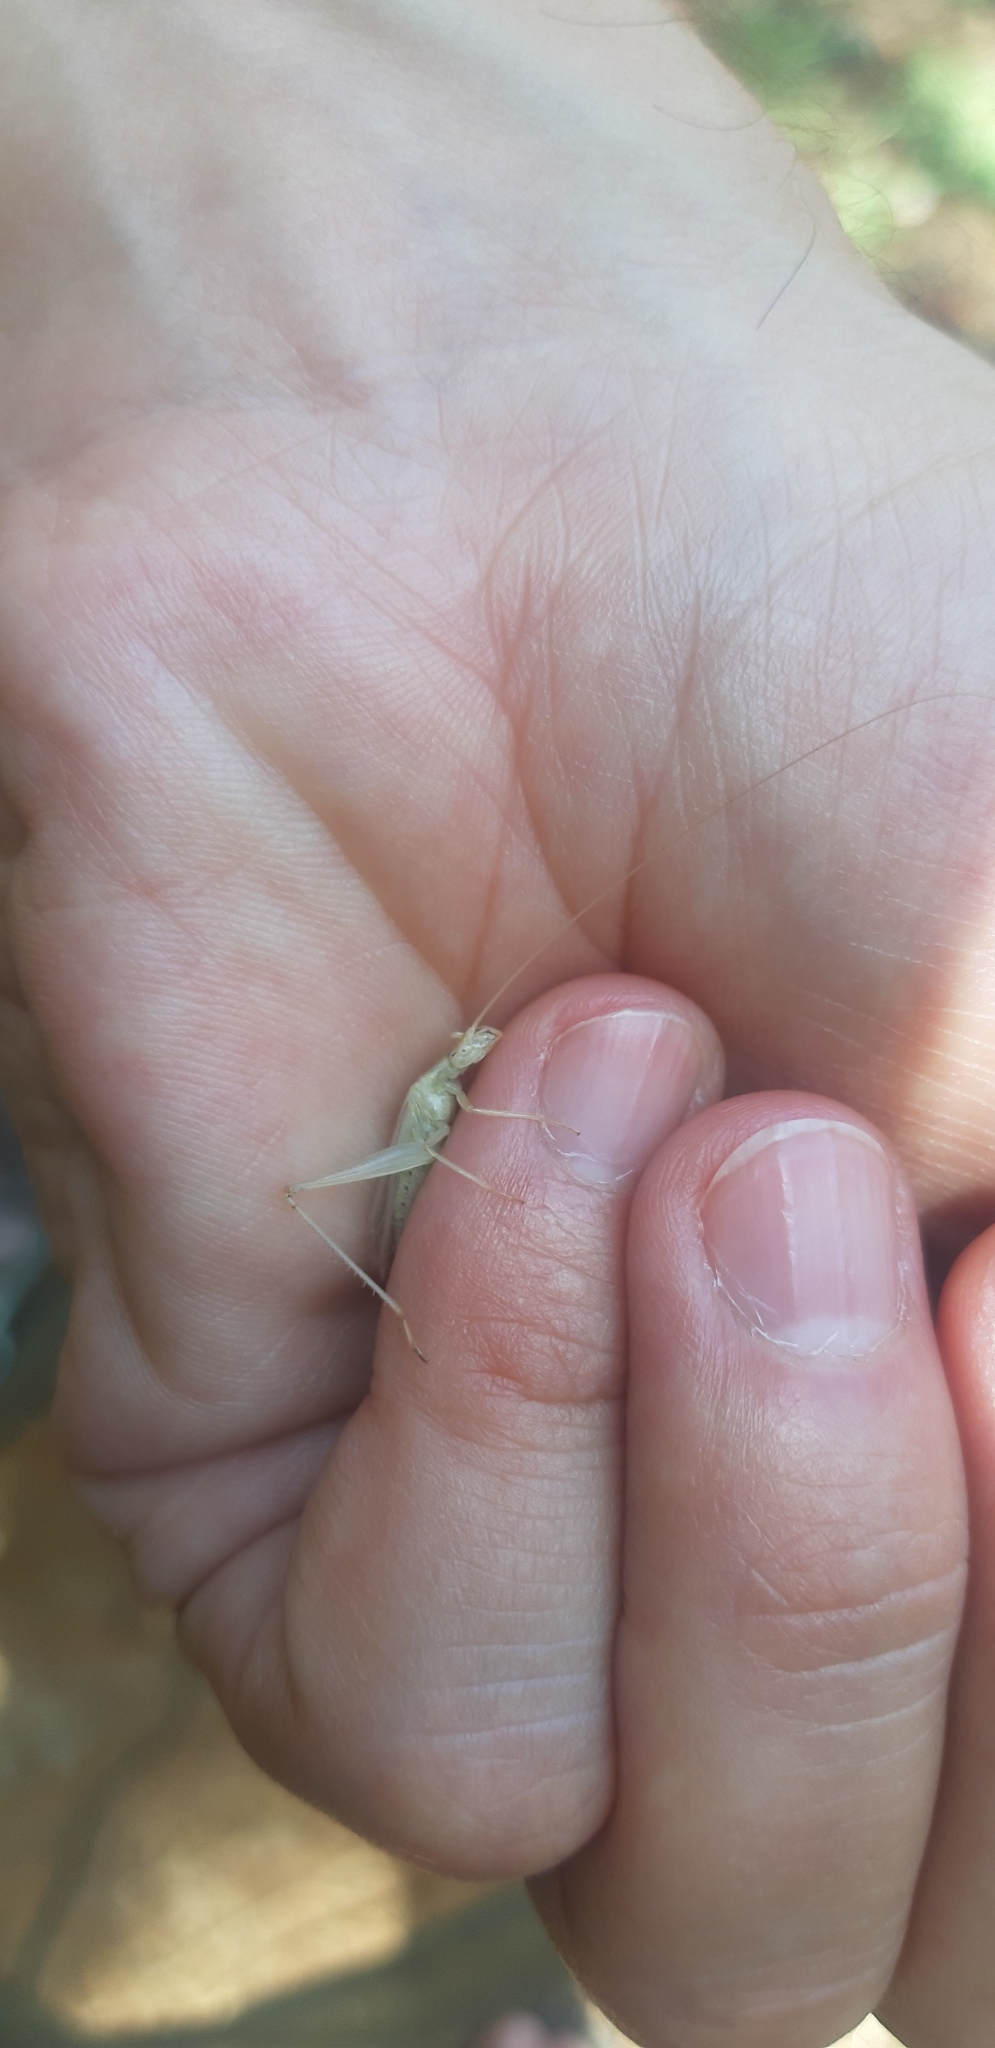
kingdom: Animalia
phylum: Arthropoda
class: Insecta
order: Orthoptera
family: Gryllidae
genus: Oecanthus
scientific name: Oecanthus pellucens
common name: Tree-cricket
